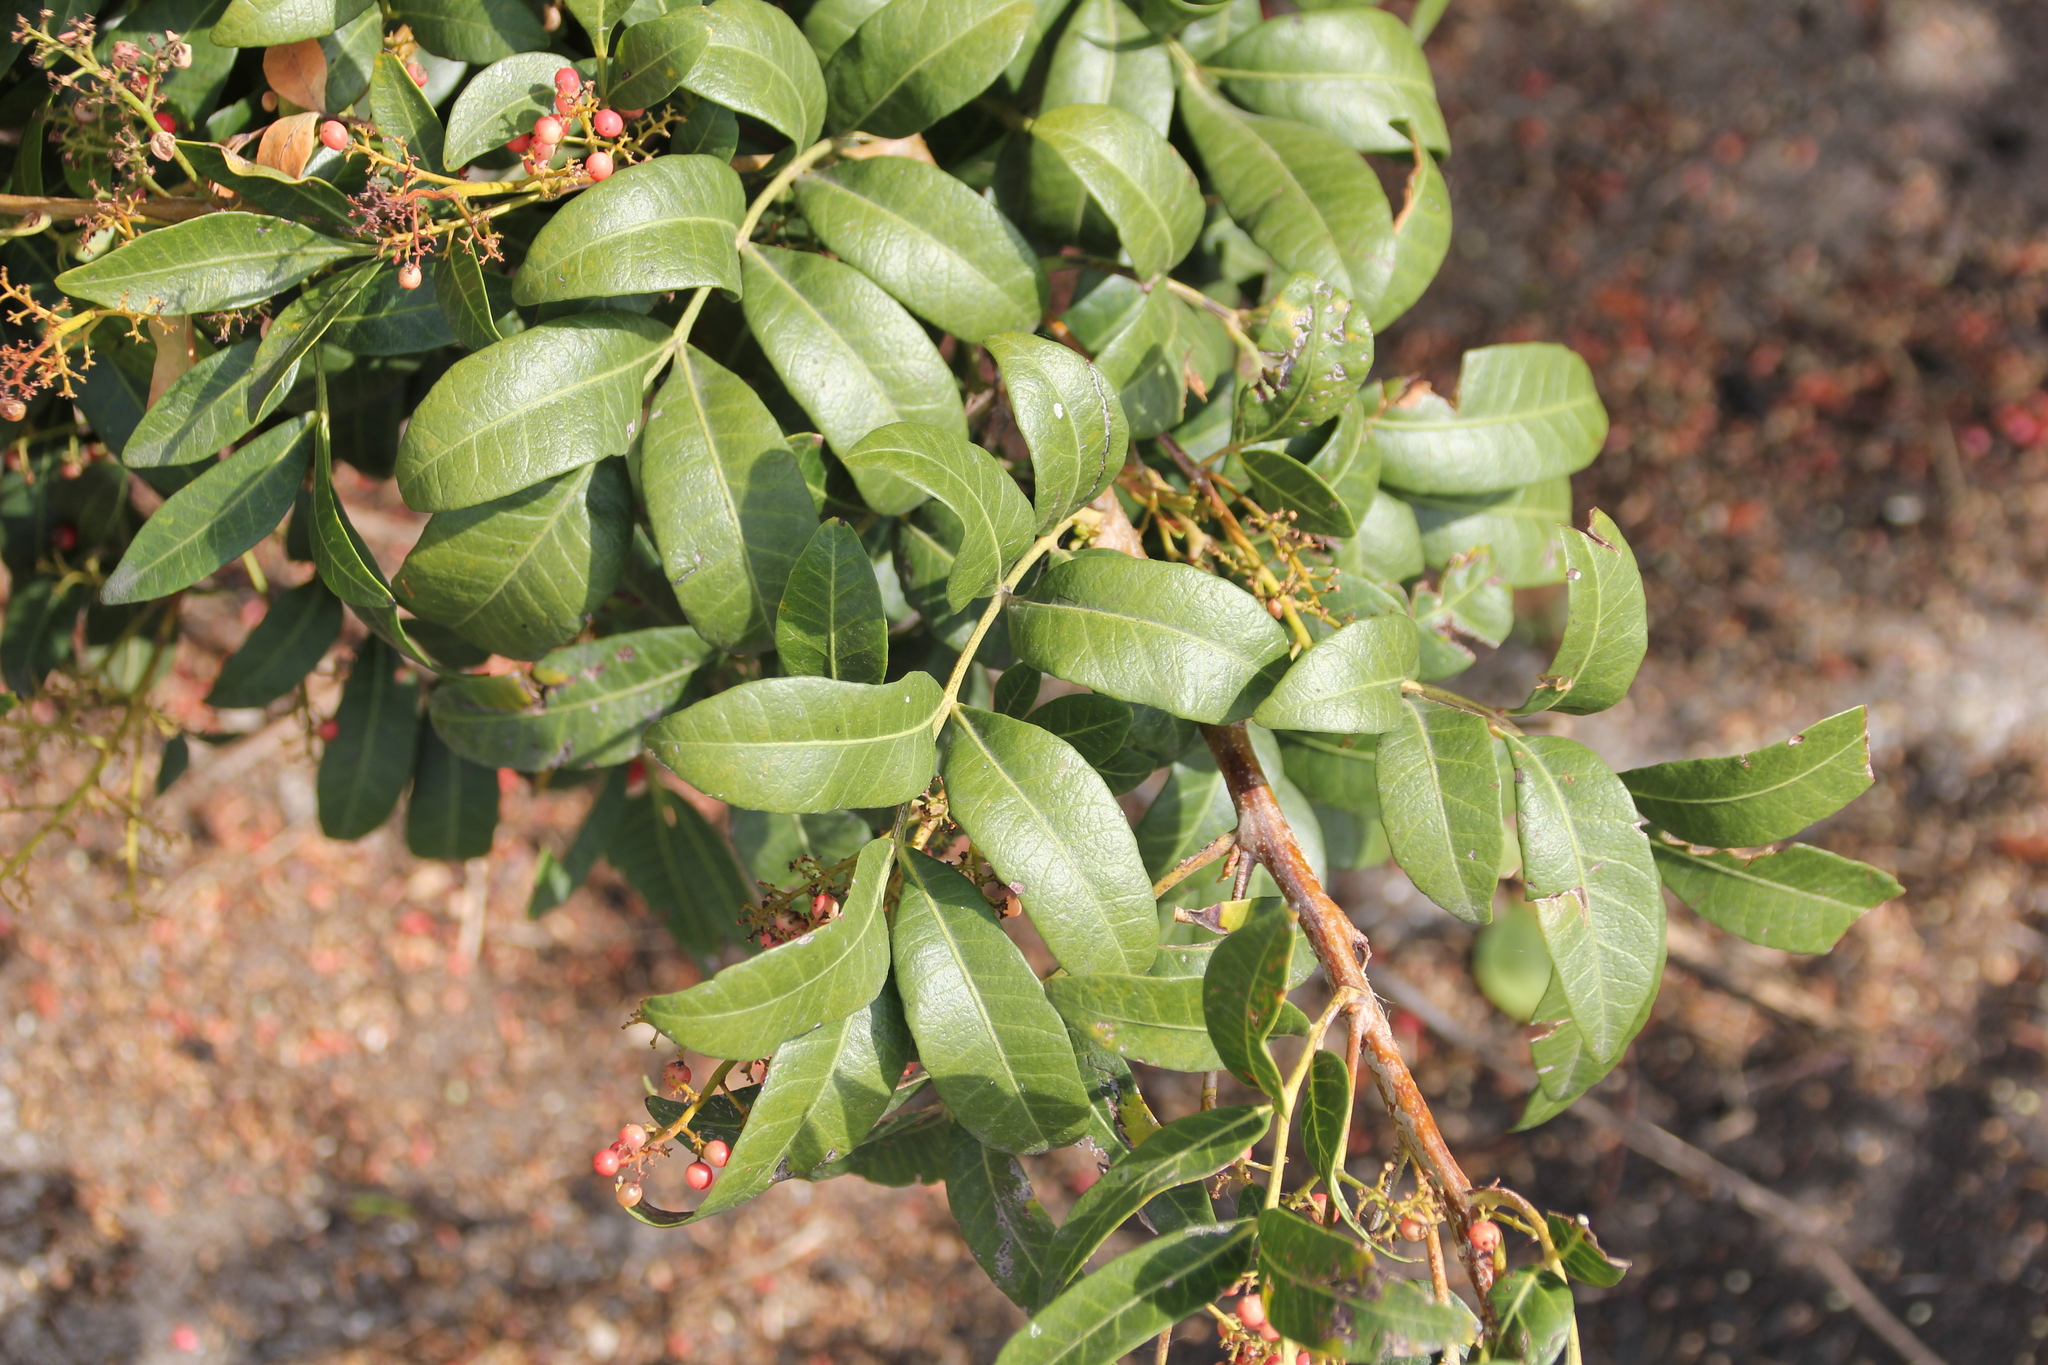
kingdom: Plantae
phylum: Tracheophyta
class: Magnoliopsida
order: Sapindales
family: Anacardiaceae
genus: Schinus
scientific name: Schinus terebinthifolia
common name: Brazilian peppertree
